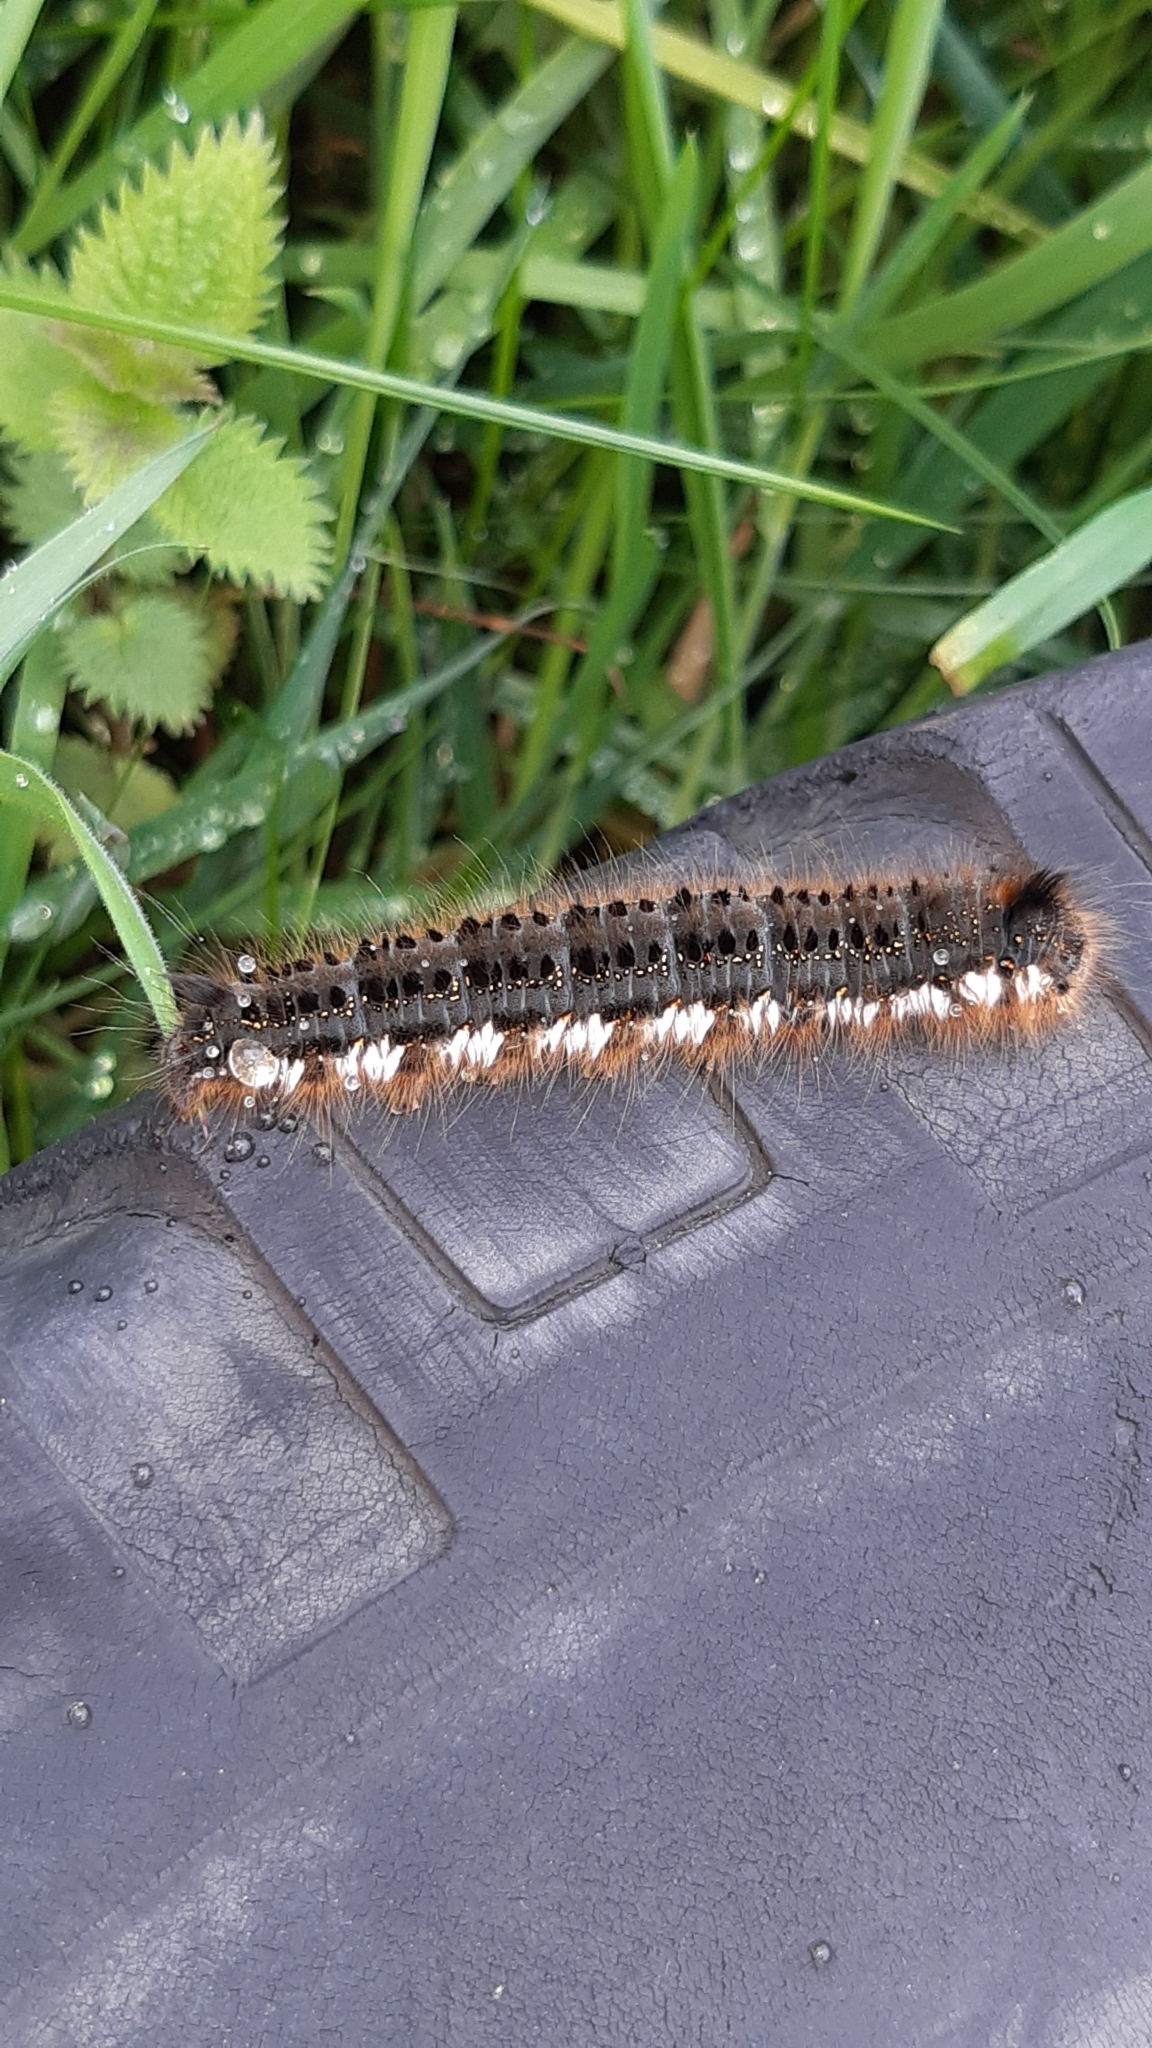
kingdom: Animalia
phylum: Arthropoda
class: Insecta
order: Lepidoptera
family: Lasiocampidae
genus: Euthrix
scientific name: Euthrix potatoria
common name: Drinker
